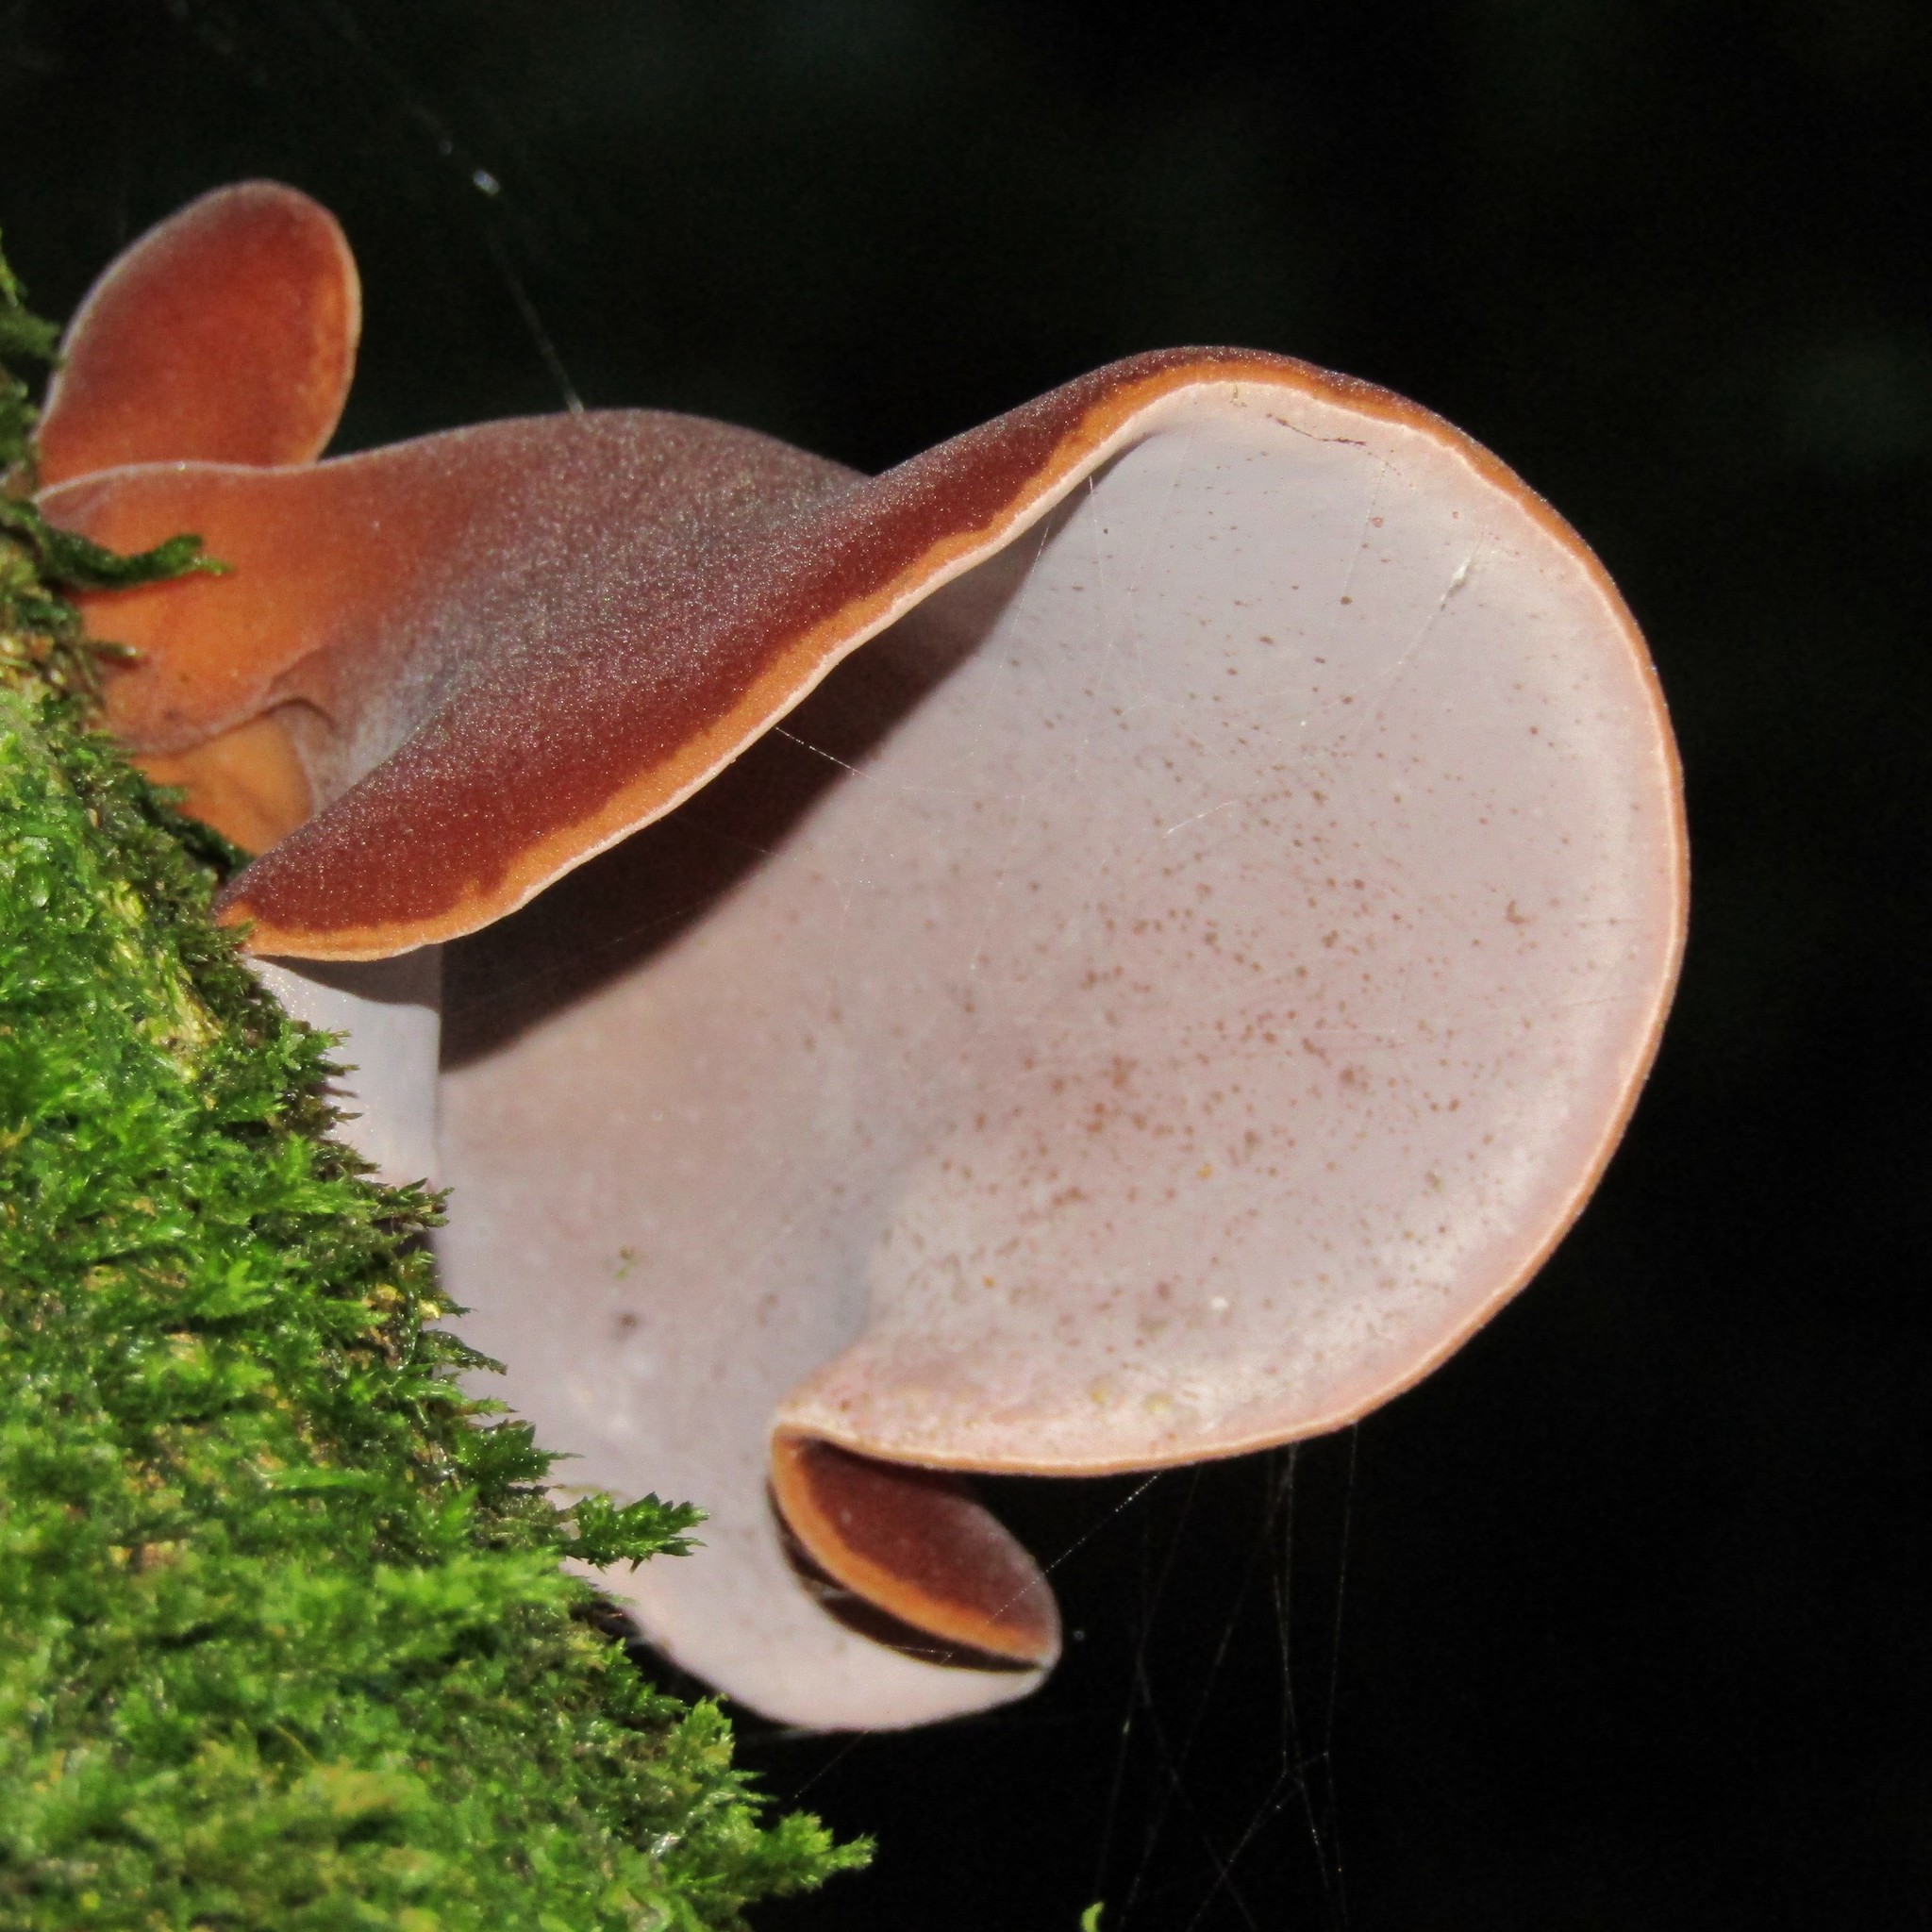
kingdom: Fungi
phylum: Basidiomycota
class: Agaricomycetes
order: Auriculariales
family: Auriculariaceae
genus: Auricularia
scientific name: Auricularia cornea
